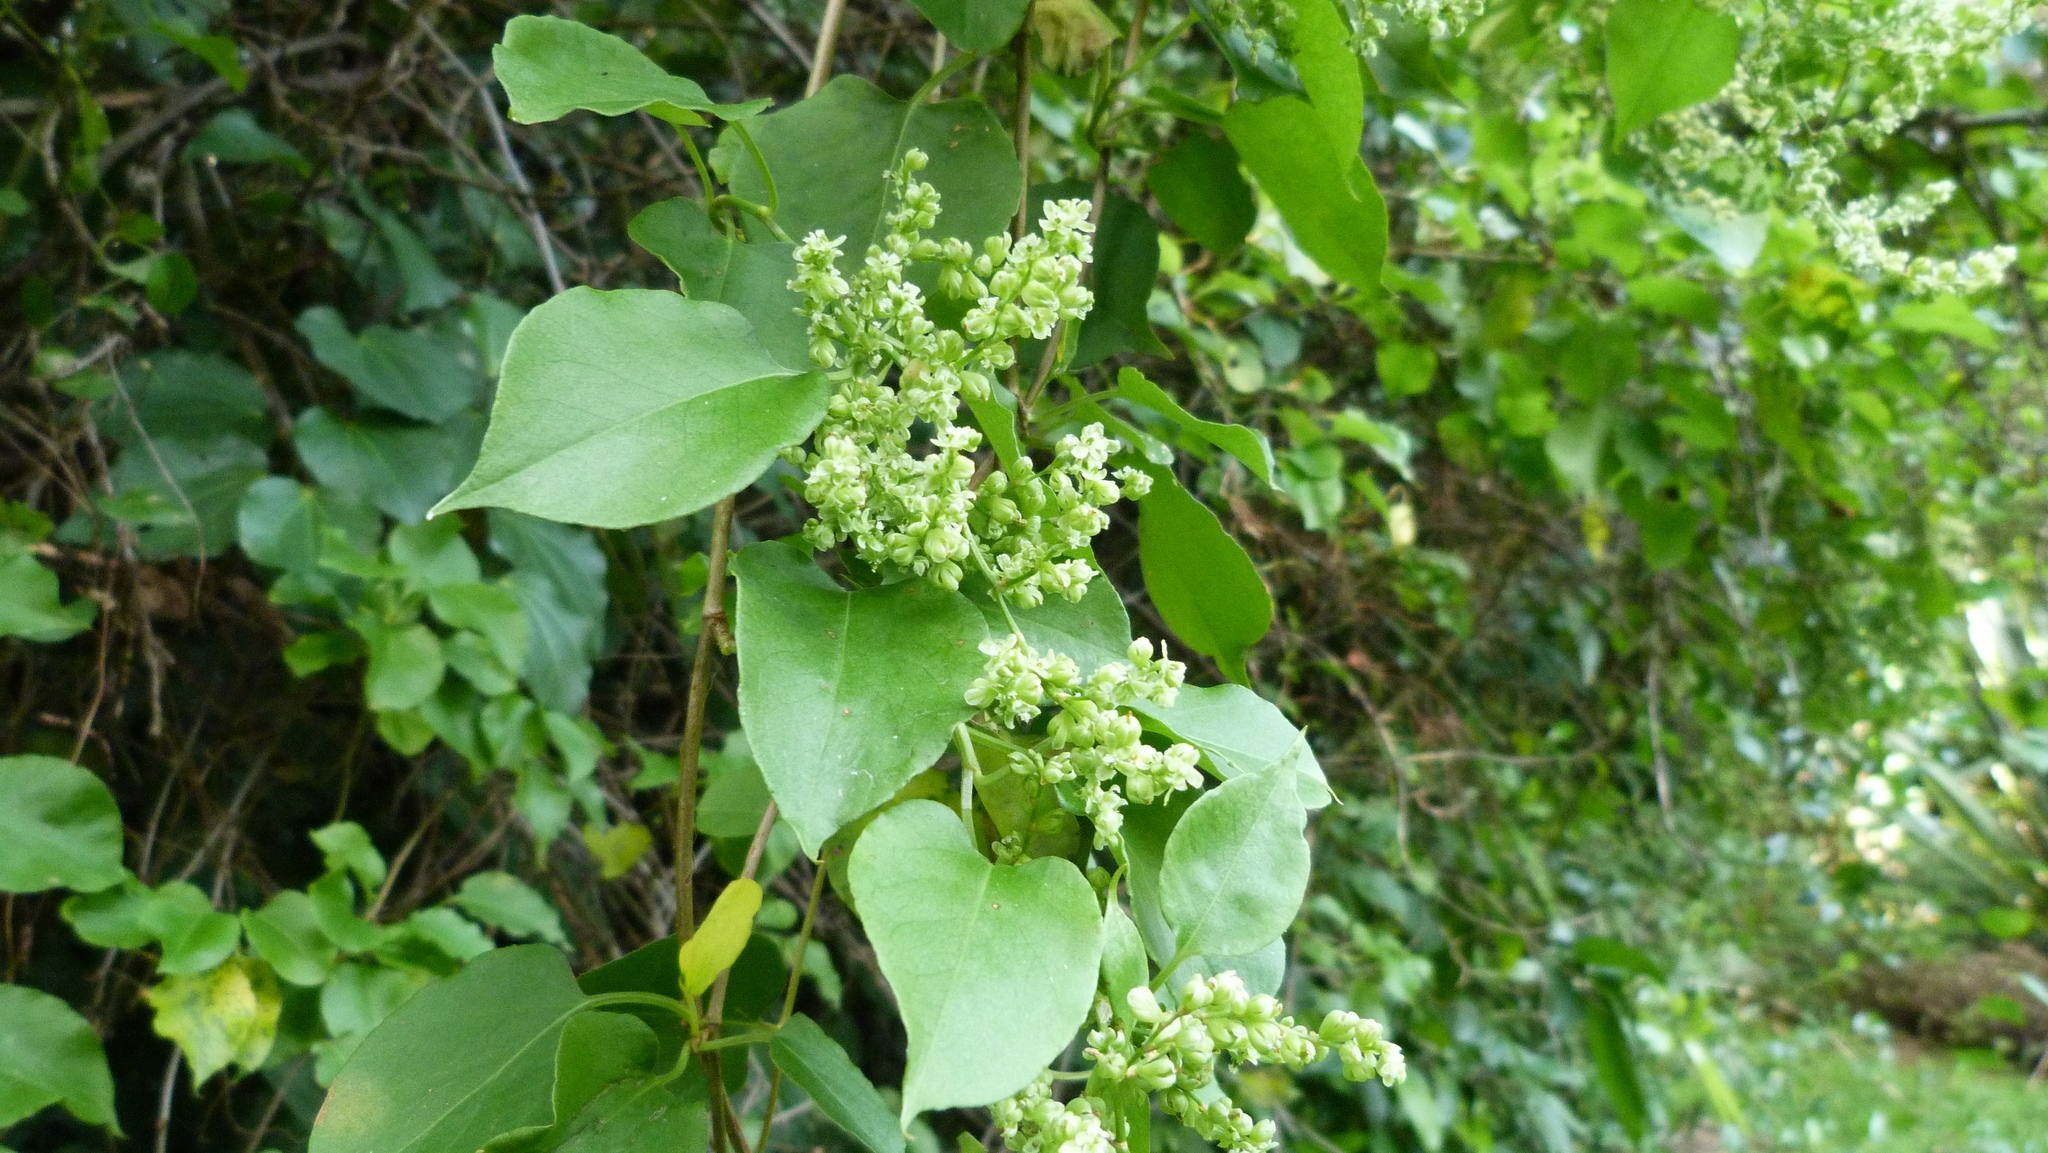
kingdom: Plantae
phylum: Tracheophyta
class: Magnoliopsida
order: Caryophyllales
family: Polygonaceae
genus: Muehlenbeckia
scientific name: Muehlenbeckia australis
